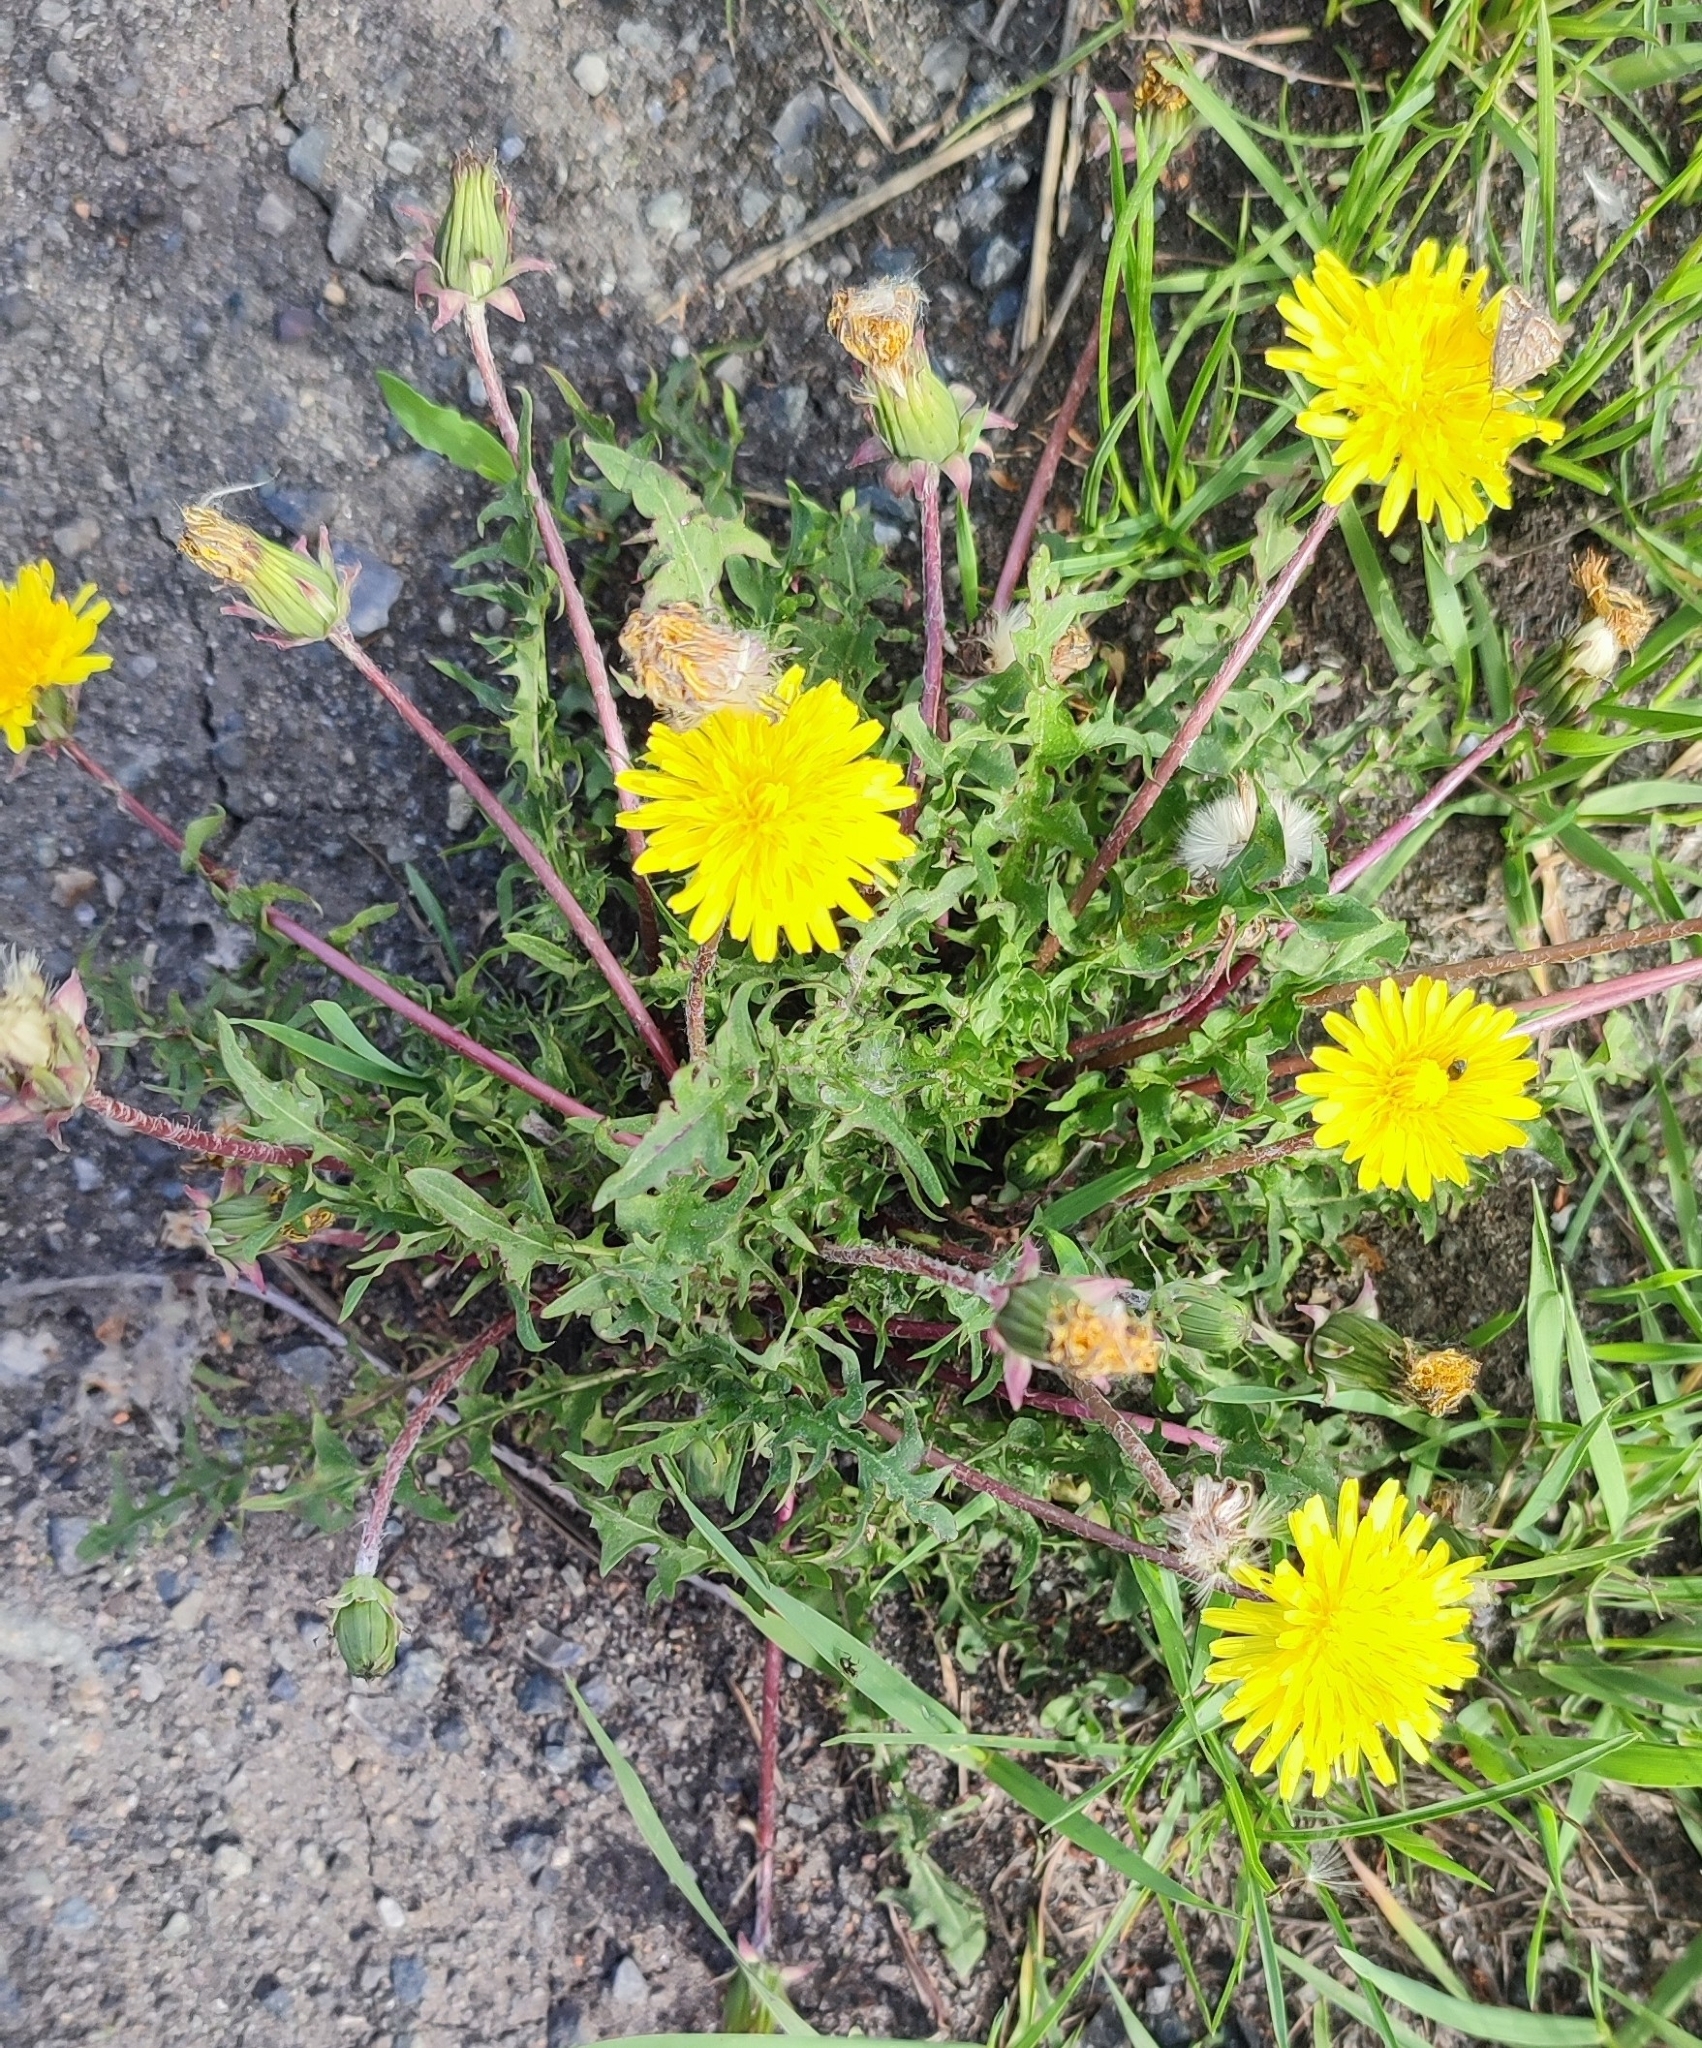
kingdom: Plantae
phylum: Tracheophyta
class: Magnoliopsida
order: Asterales
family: Asteraceae
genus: Taraxacum
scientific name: Taraxacum scariosum
